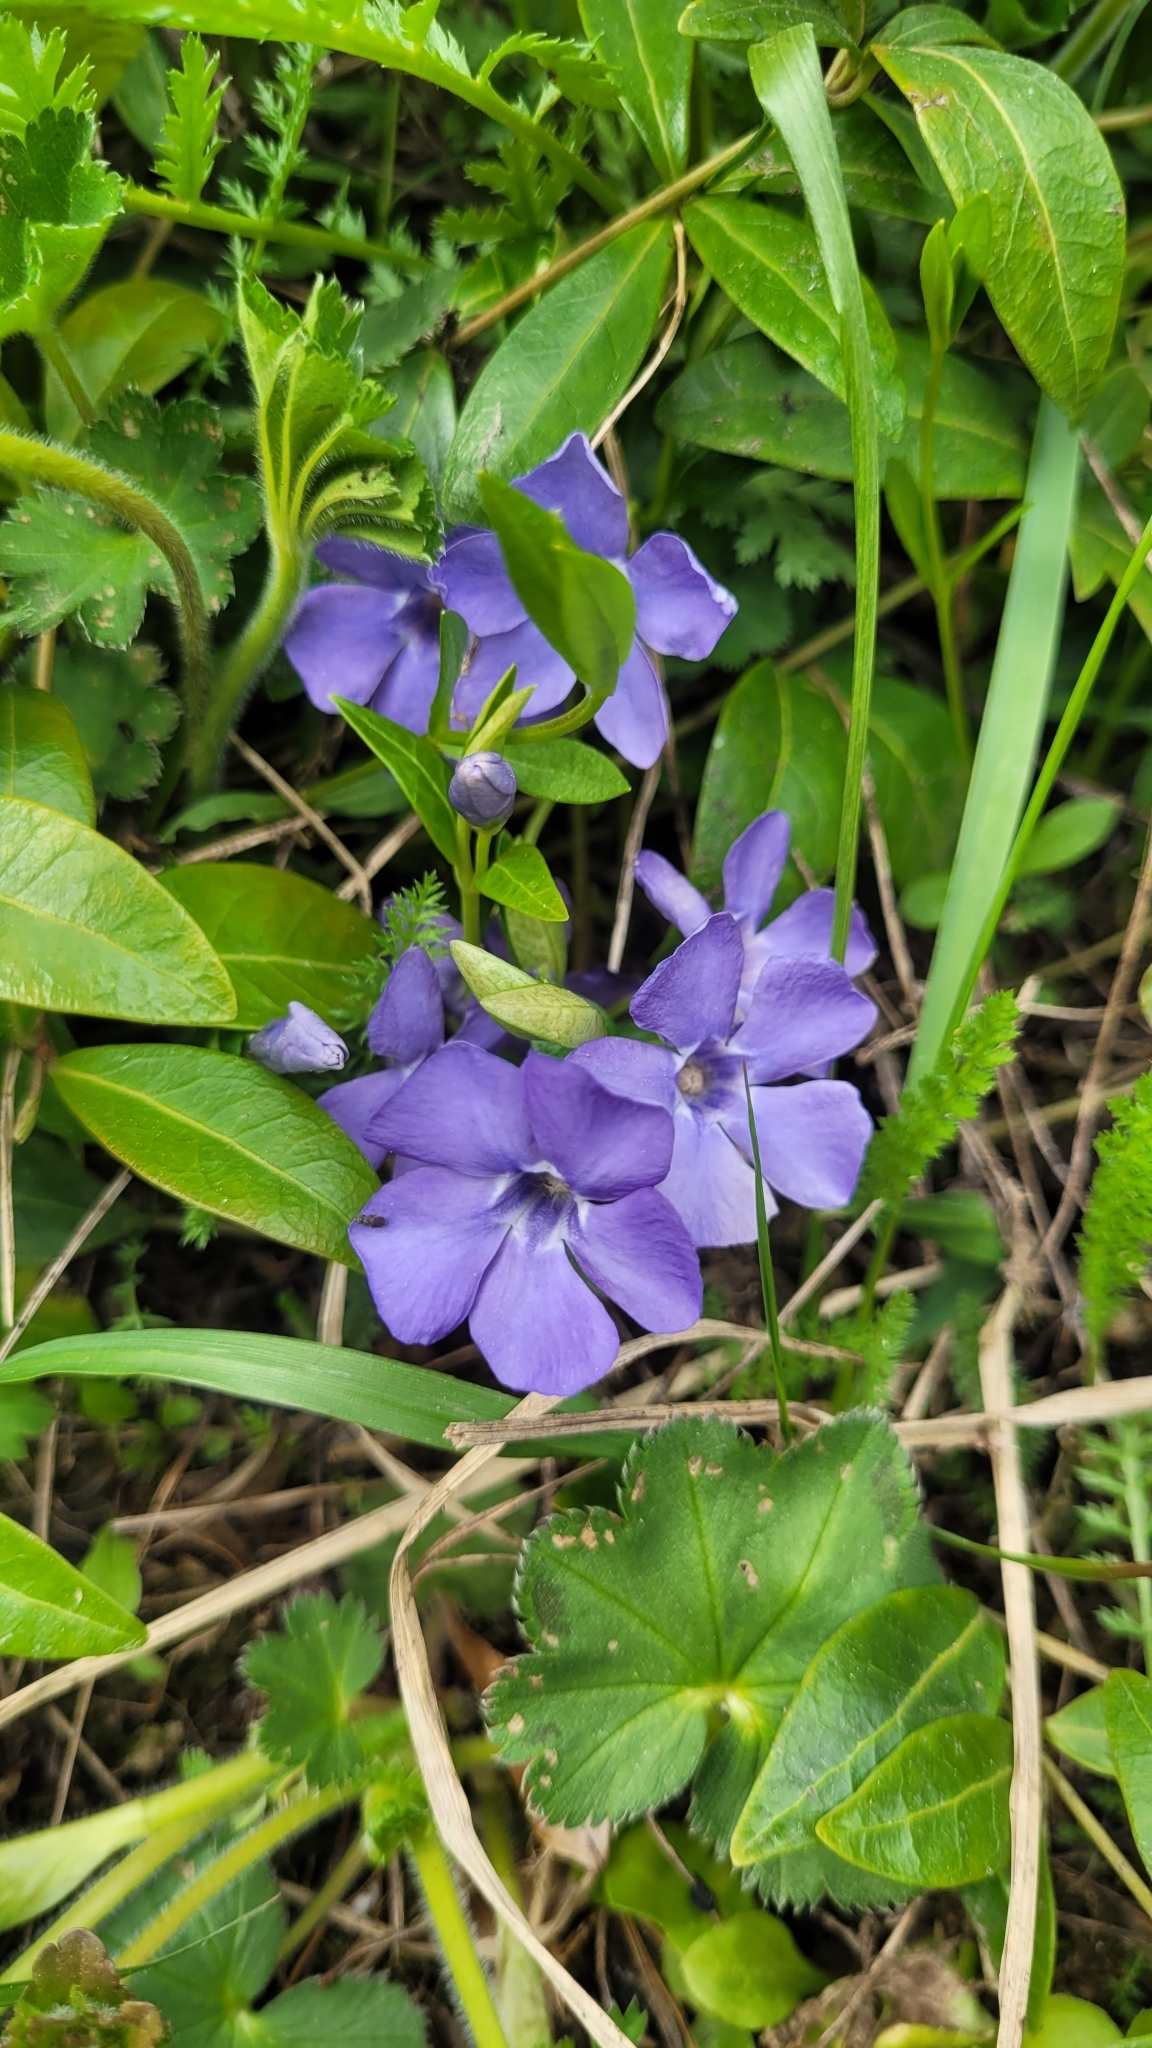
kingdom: Plantae
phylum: Tracheophyta
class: Magnoliopsida
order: Gentianales
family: Apocynaceae
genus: Vinca
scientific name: Vinca minor
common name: Lesser periwinkle
